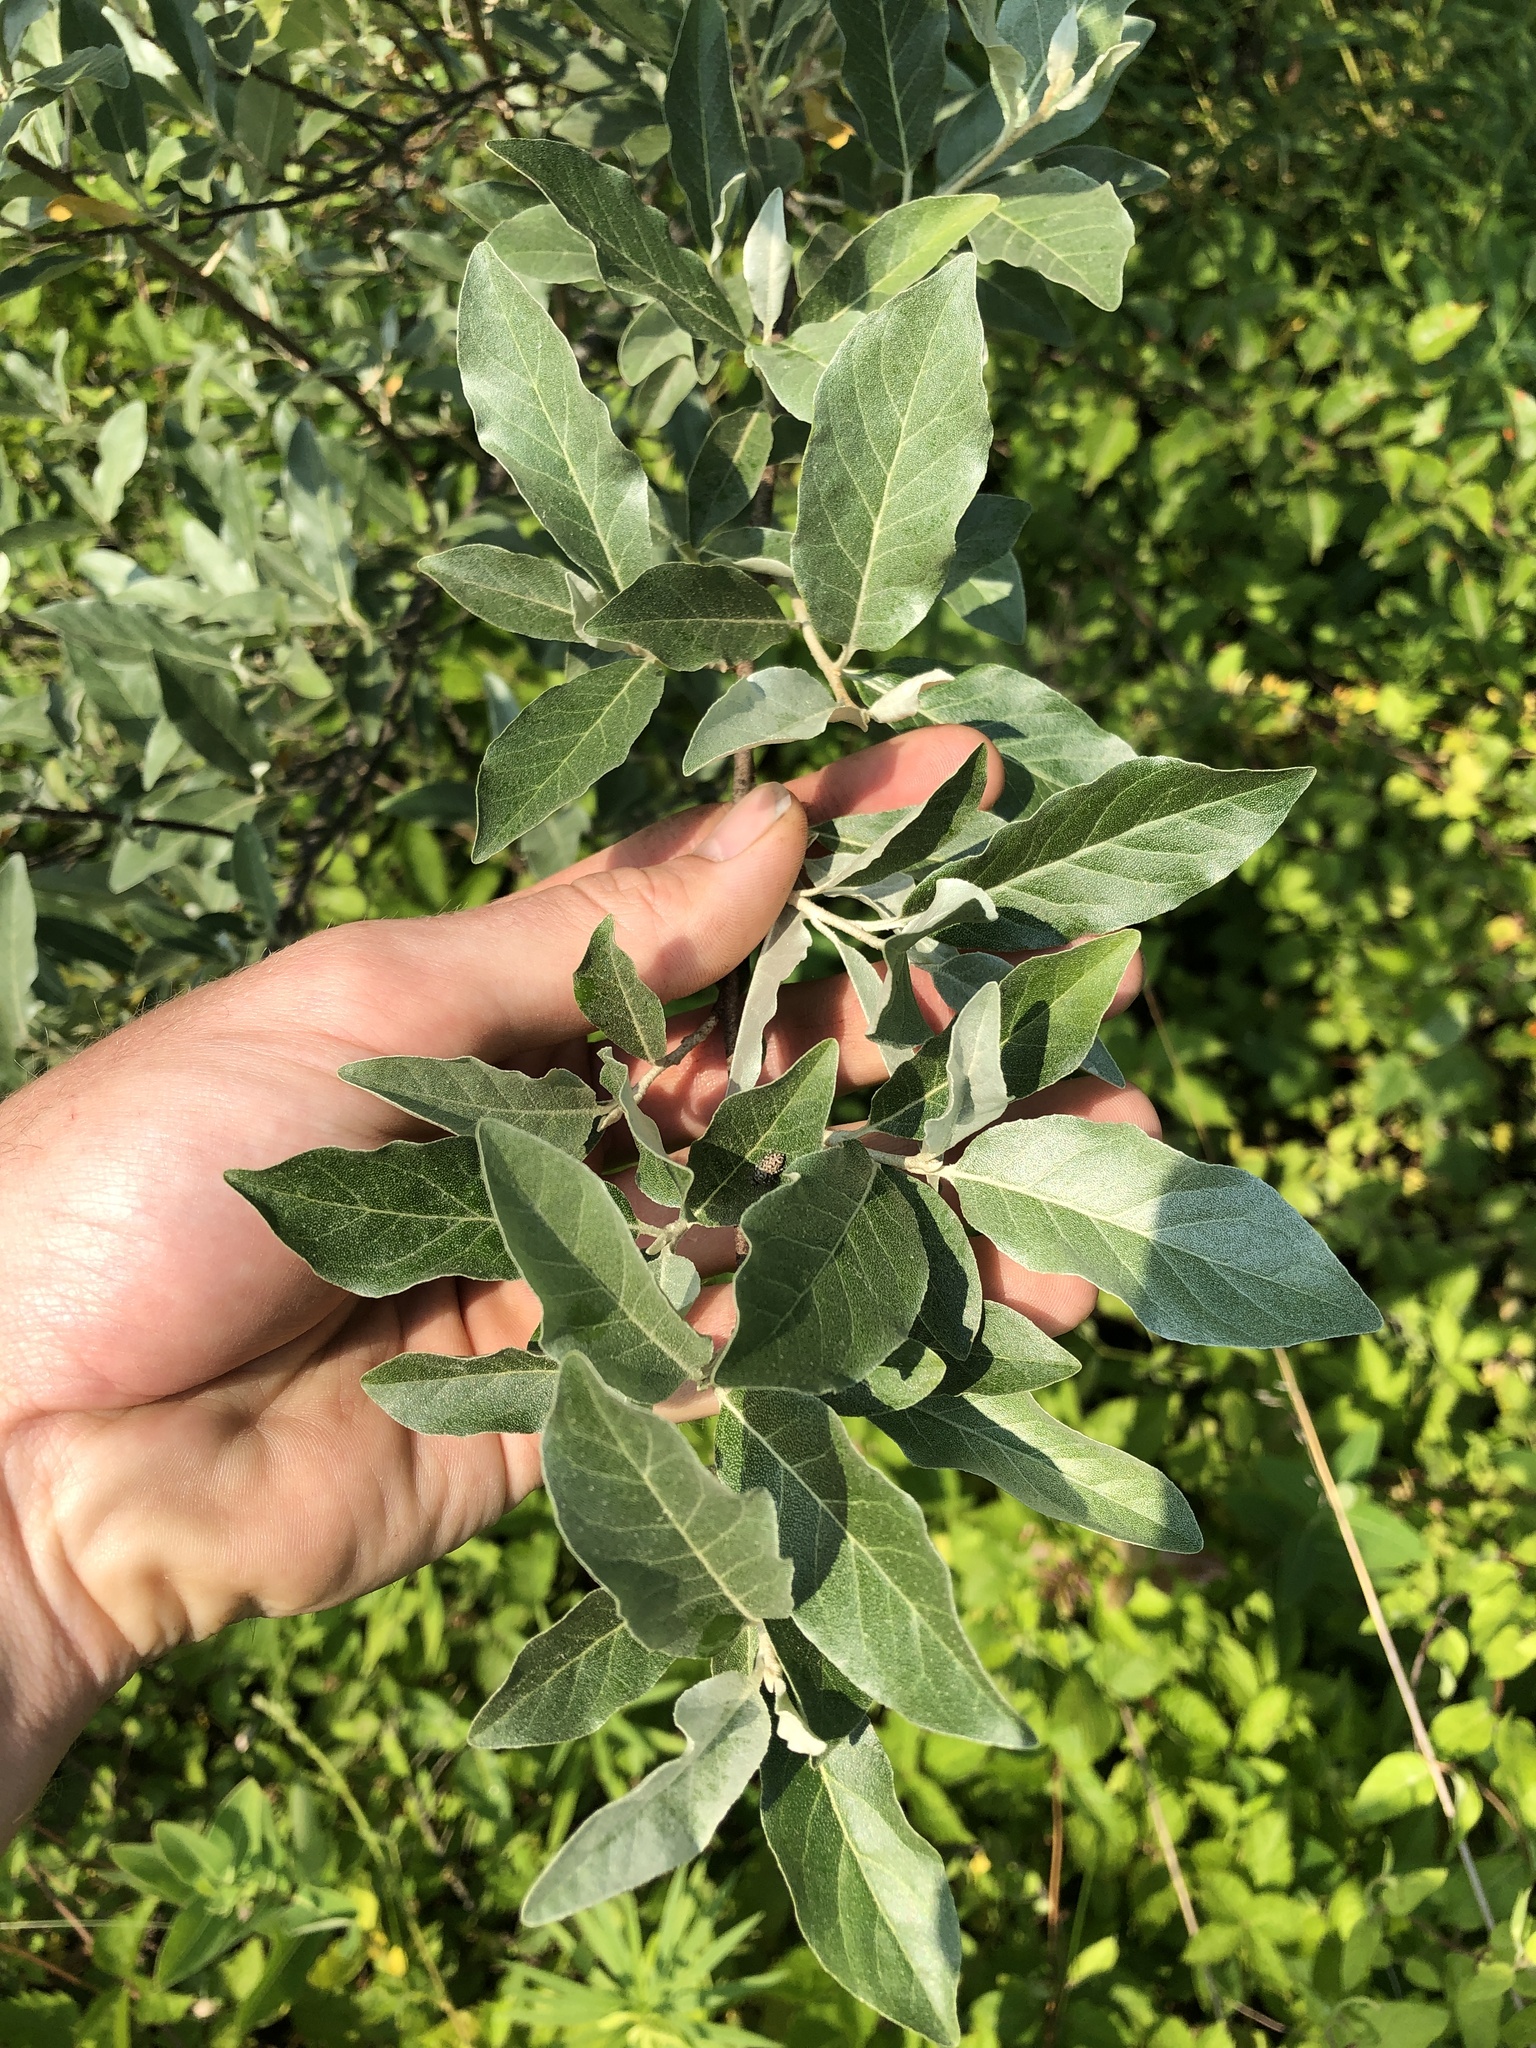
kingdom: Plantae
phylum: Tracheophyta
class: Magnoliopsida
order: Rosales
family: Elaeagnaceae
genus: Elaeagnus
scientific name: Elaeagnus umbellata
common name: Autumn olive
